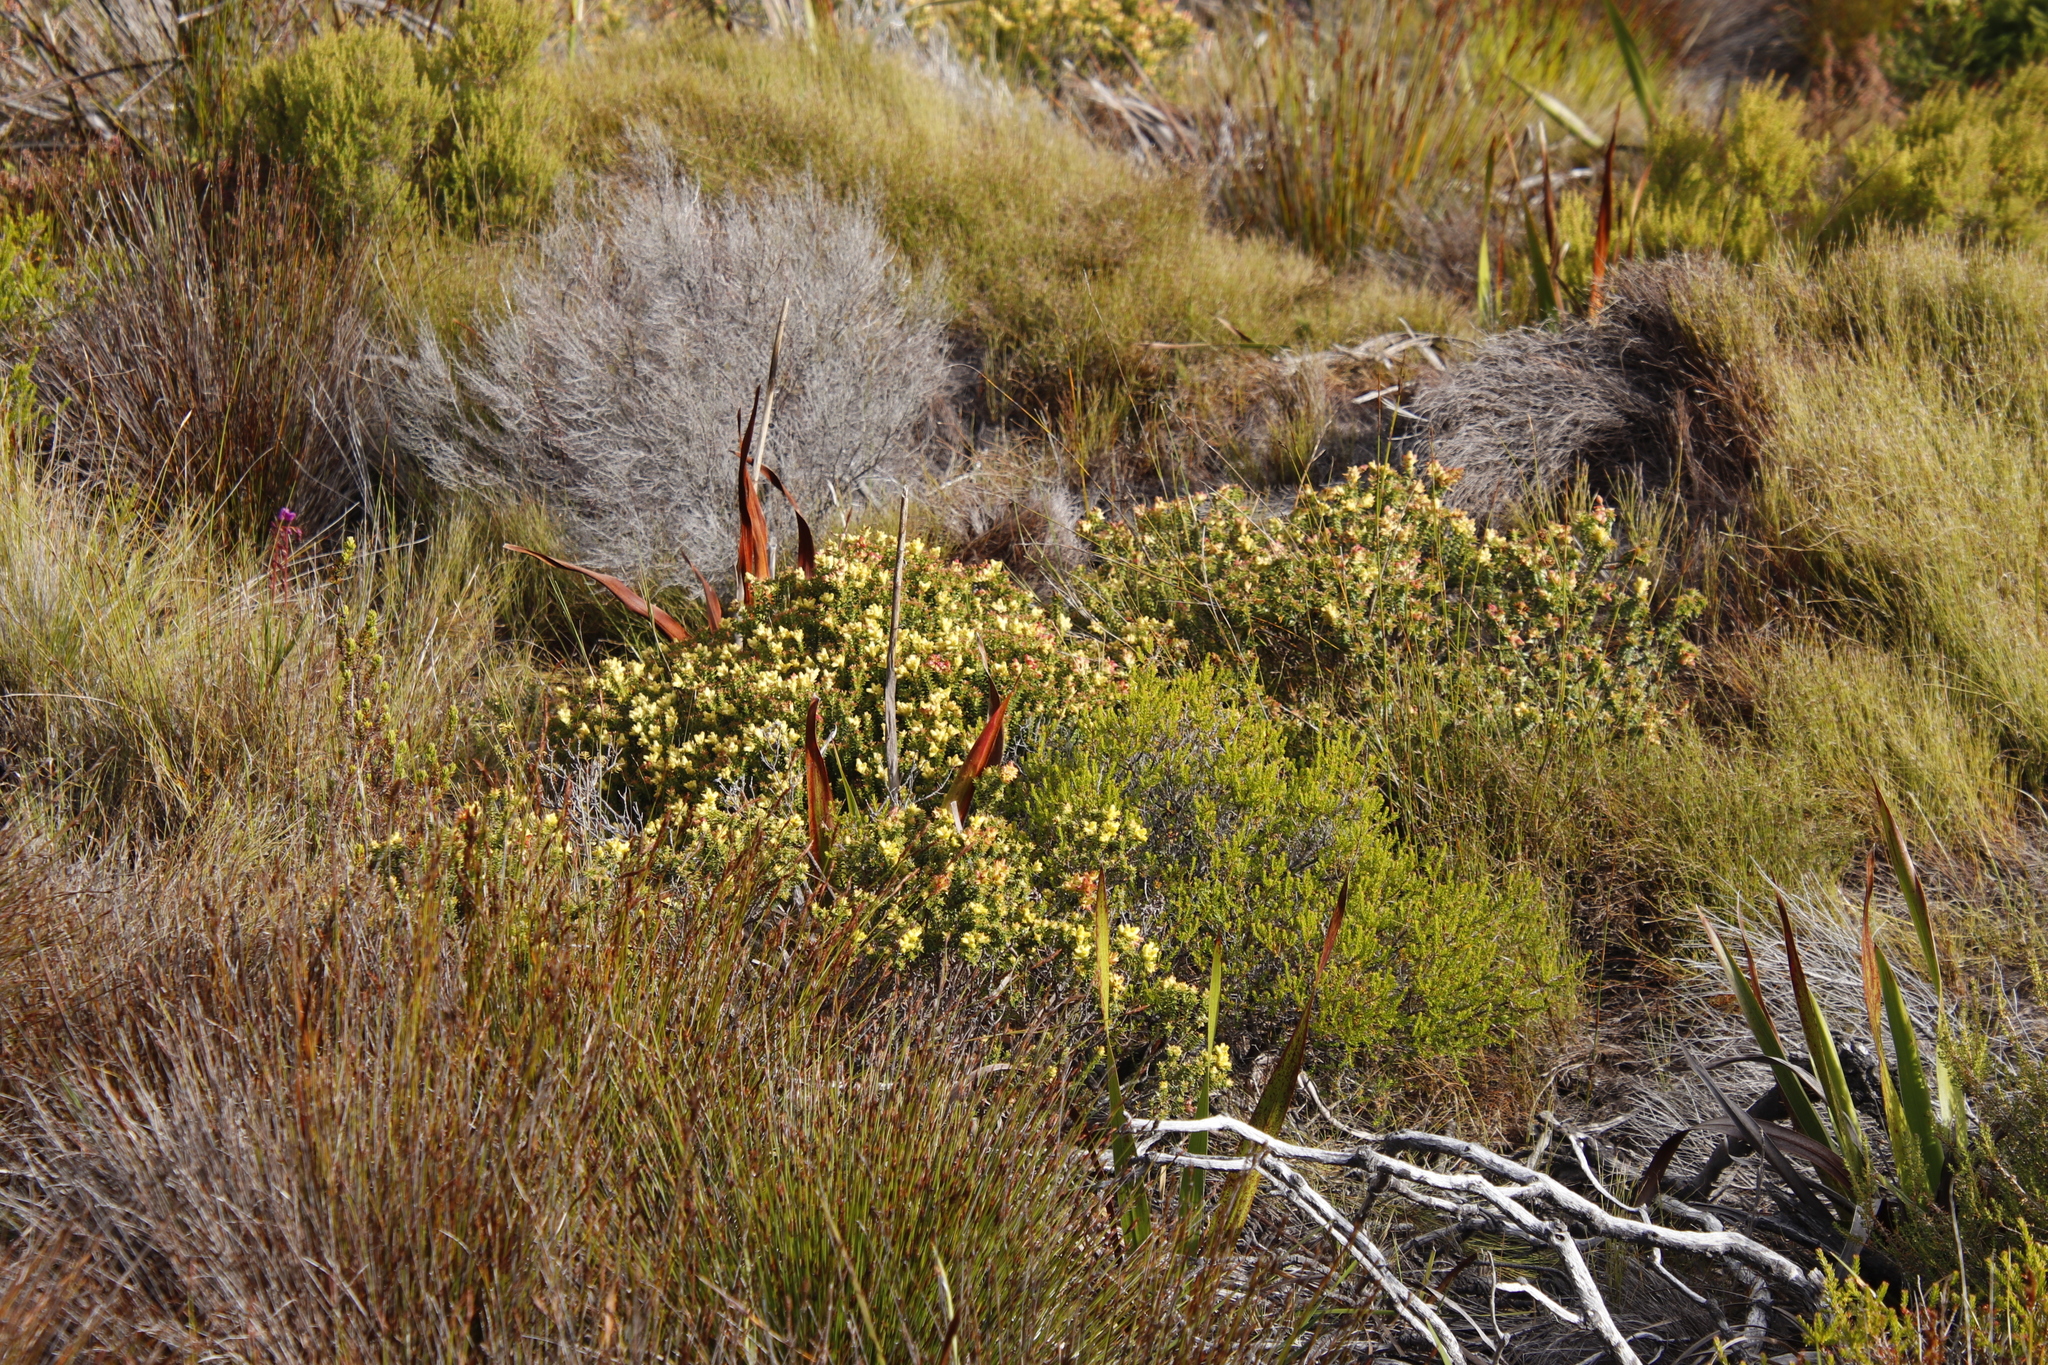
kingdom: Plantae
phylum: Tracheophyta
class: Magnoliopsida
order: Myrtales
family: Penaeaceae
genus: Penaea
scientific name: Penaea mucronata
